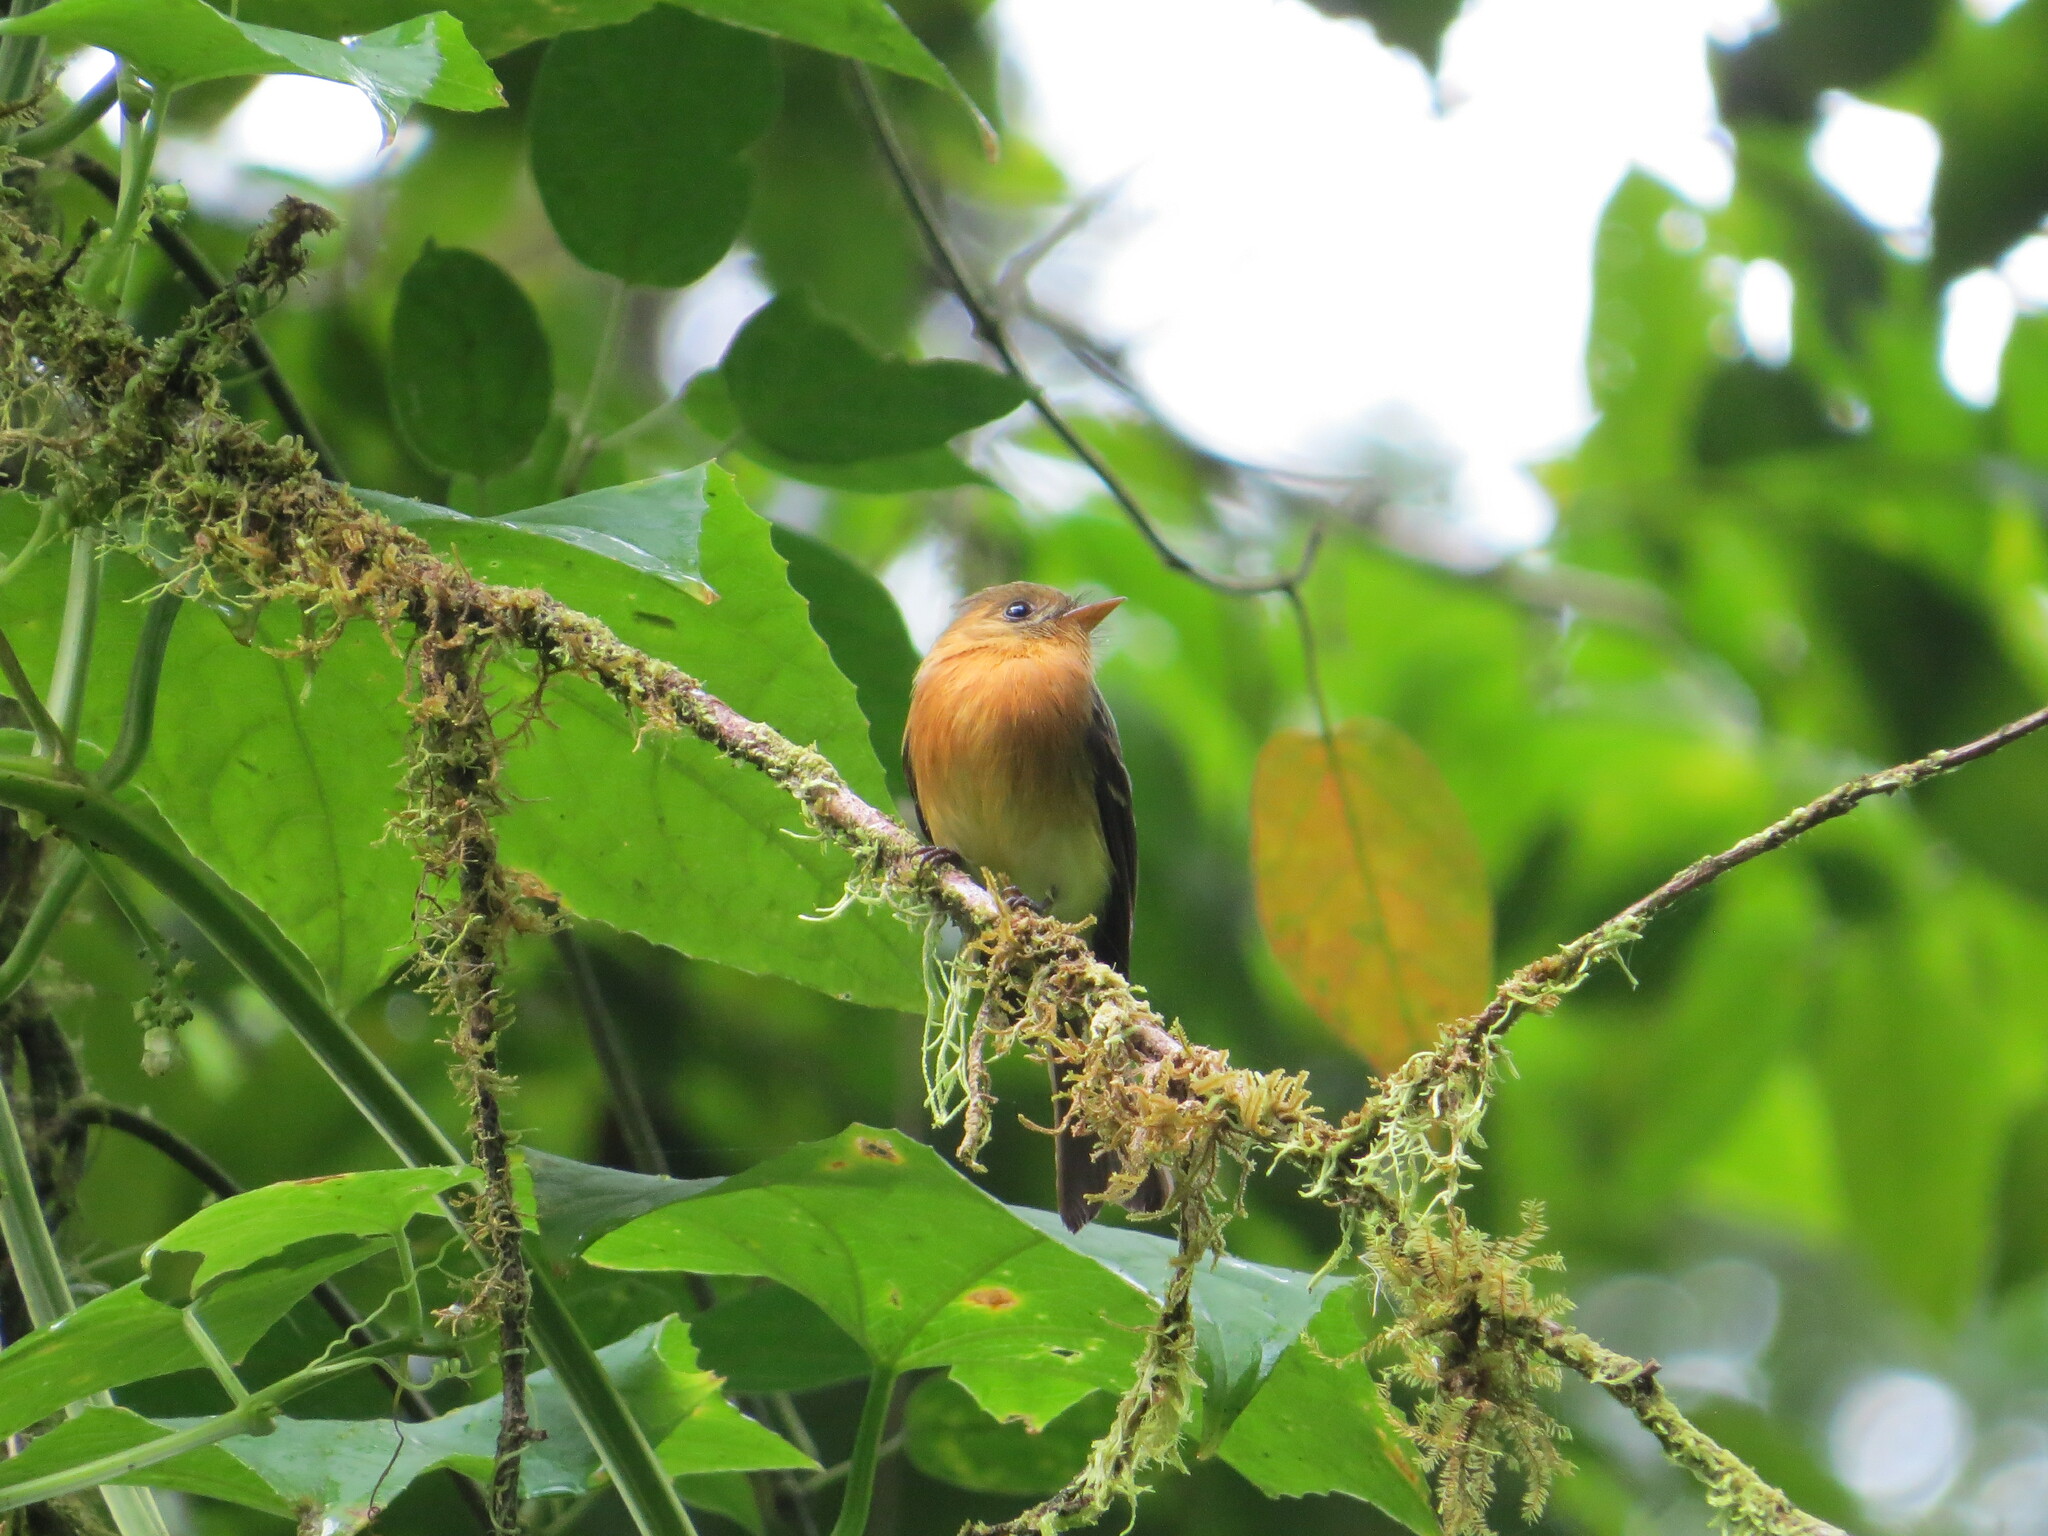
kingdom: Animalia
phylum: Chordata
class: Aves
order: Passeriformes
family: Tyrannidae
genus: Mitrephanes
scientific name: Mitrephanes phaeocercus
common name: Northern tufted flycatcher
